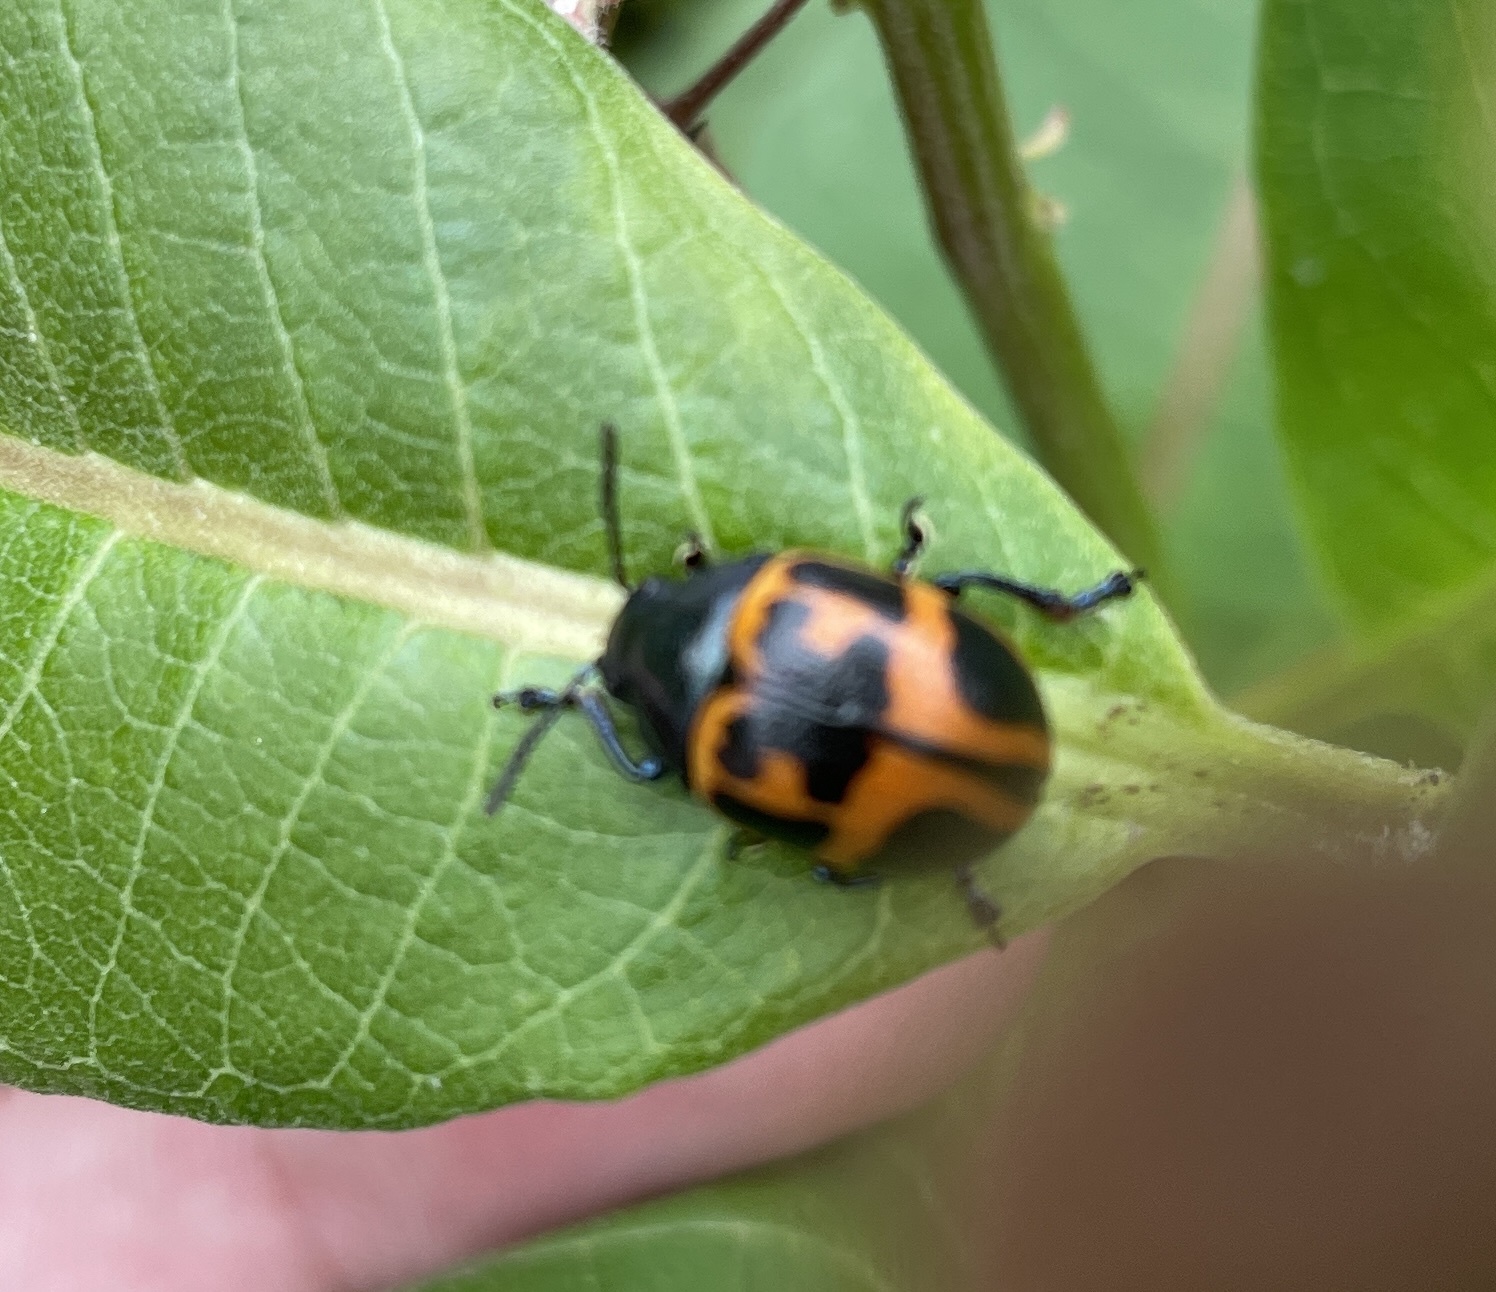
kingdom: Animalia
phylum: Arthropoda
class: Insecta
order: Coleoptera
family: Chrysomelidae
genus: Labidomera
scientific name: Labidomera clivicollis
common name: Swamp milkweed leaf beetle
